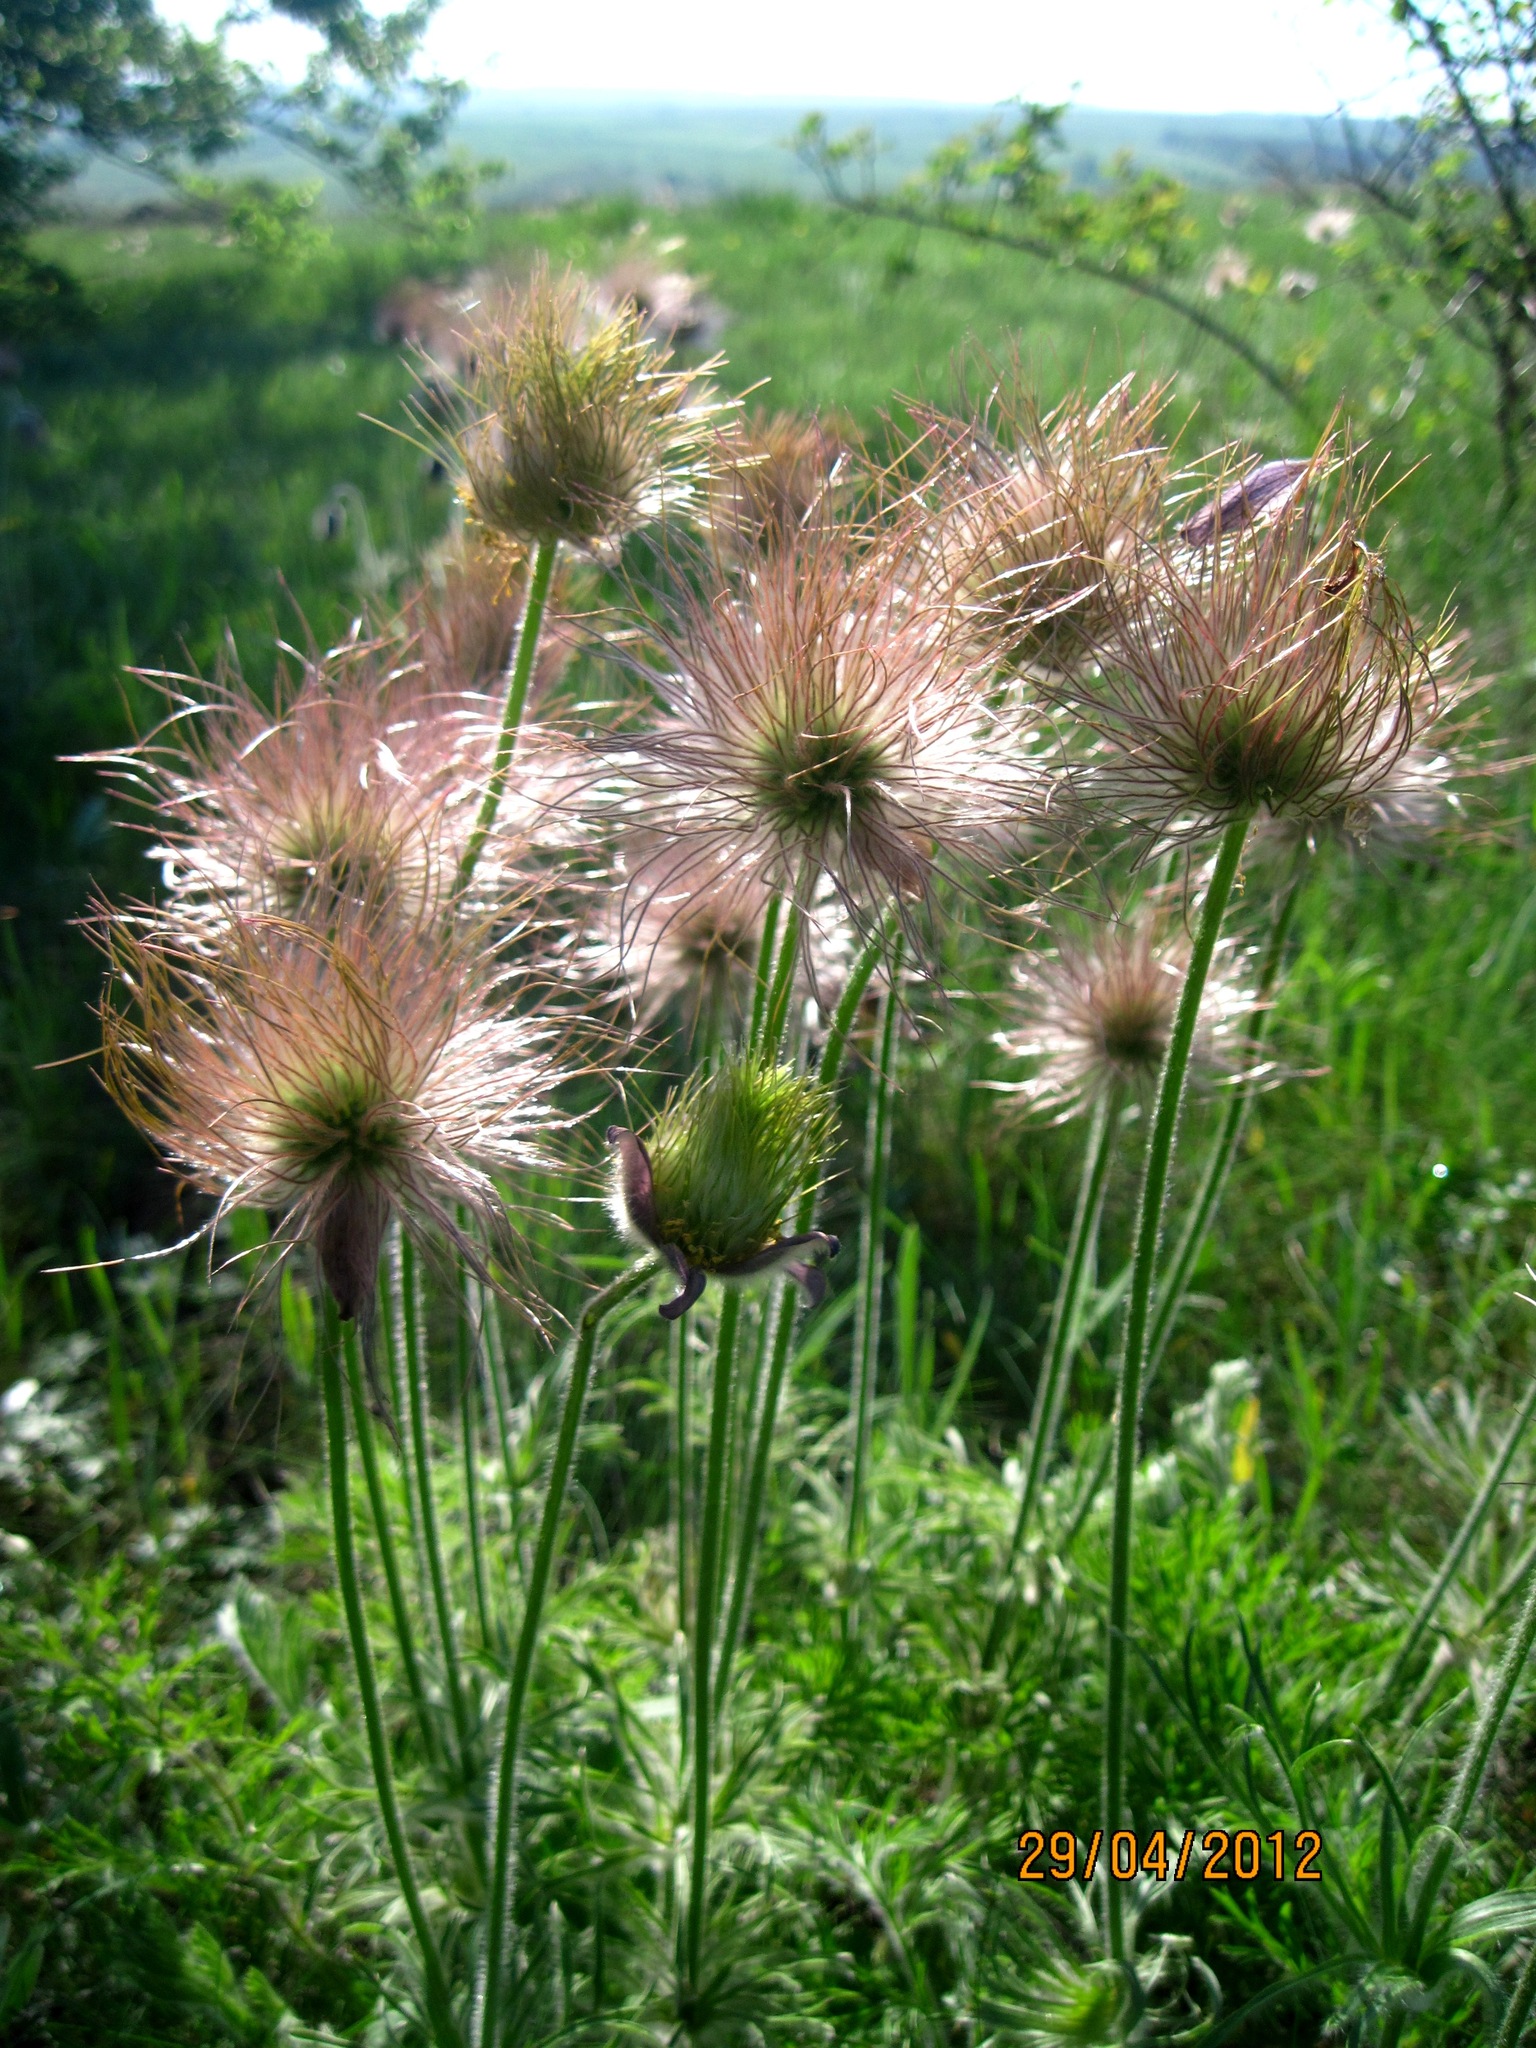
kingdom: Plantae
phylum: Tracheophyta
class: Magnoliopsida
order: Ranunculales
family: Ranunculaceae
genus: Pulsatilla
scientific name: Pulsatilla pratensis
